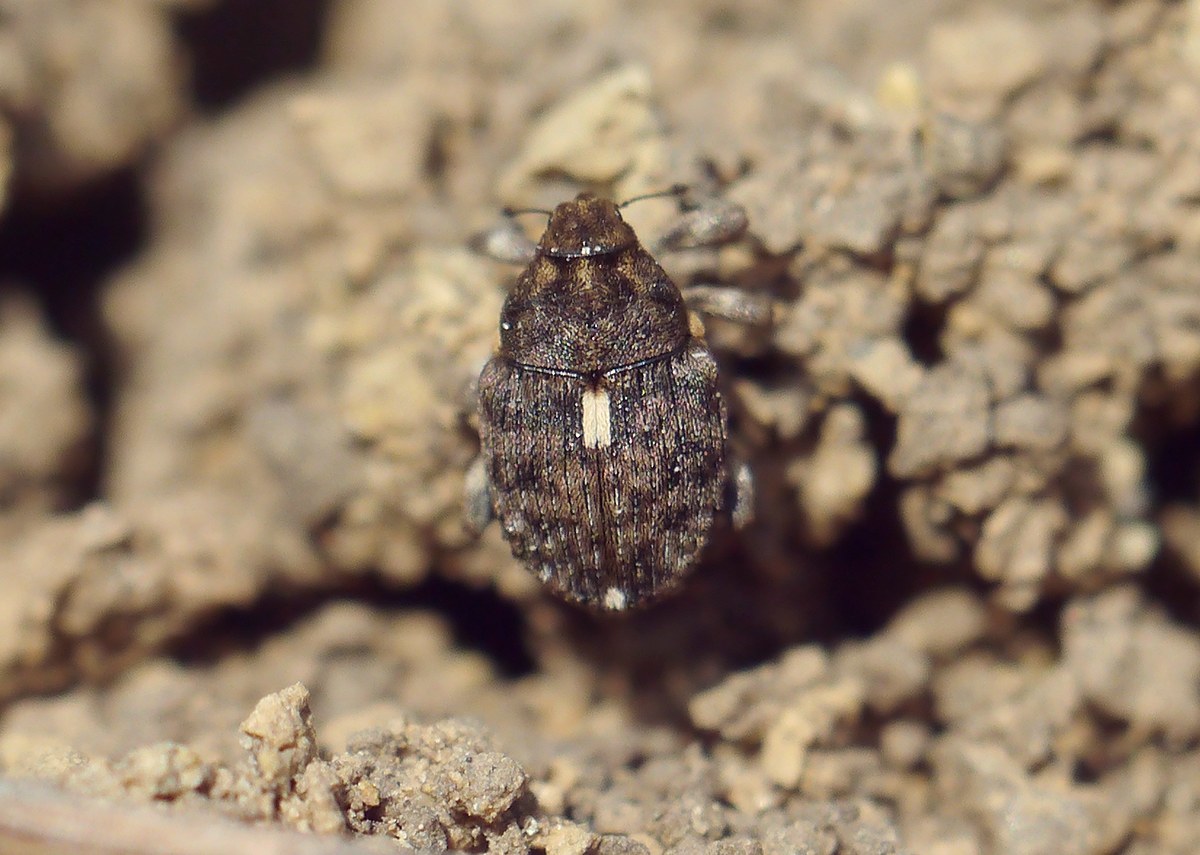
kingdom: Animalia
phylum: Arthropoda
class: Insecta
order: Coleoptera
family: Curculionidae
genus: Ethelcus
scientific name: Ethelcus denticulatus
